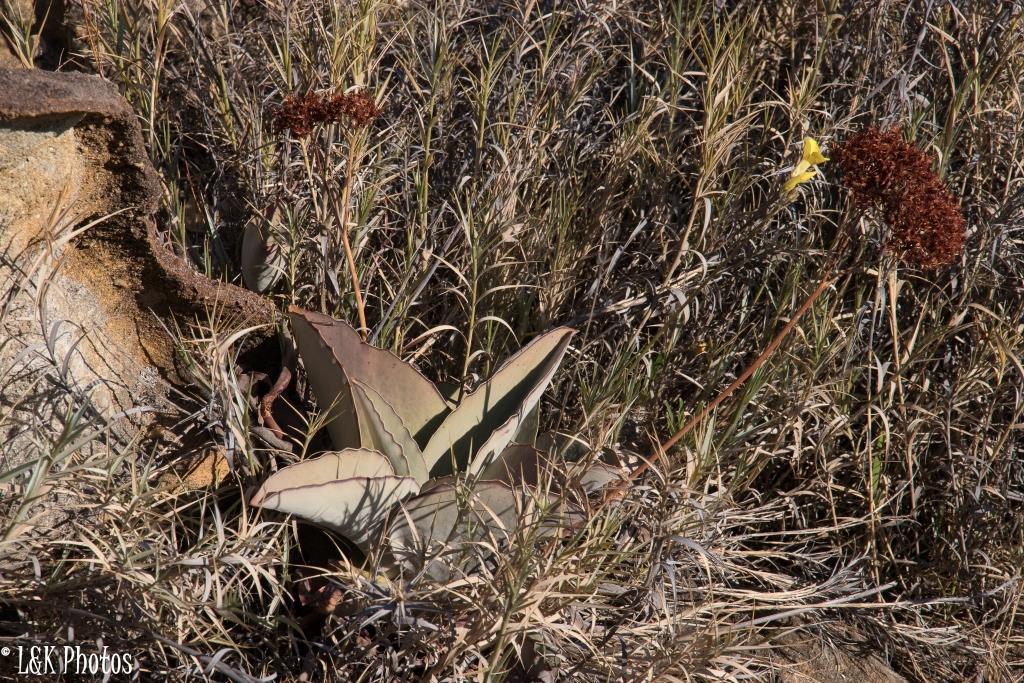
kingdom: Plantae
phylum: Tracheophyta
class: Magnoliopsida
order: Saxifragales
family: Crassulaceae
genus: Kalanchoe
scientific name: Kalanchoe synsepala
